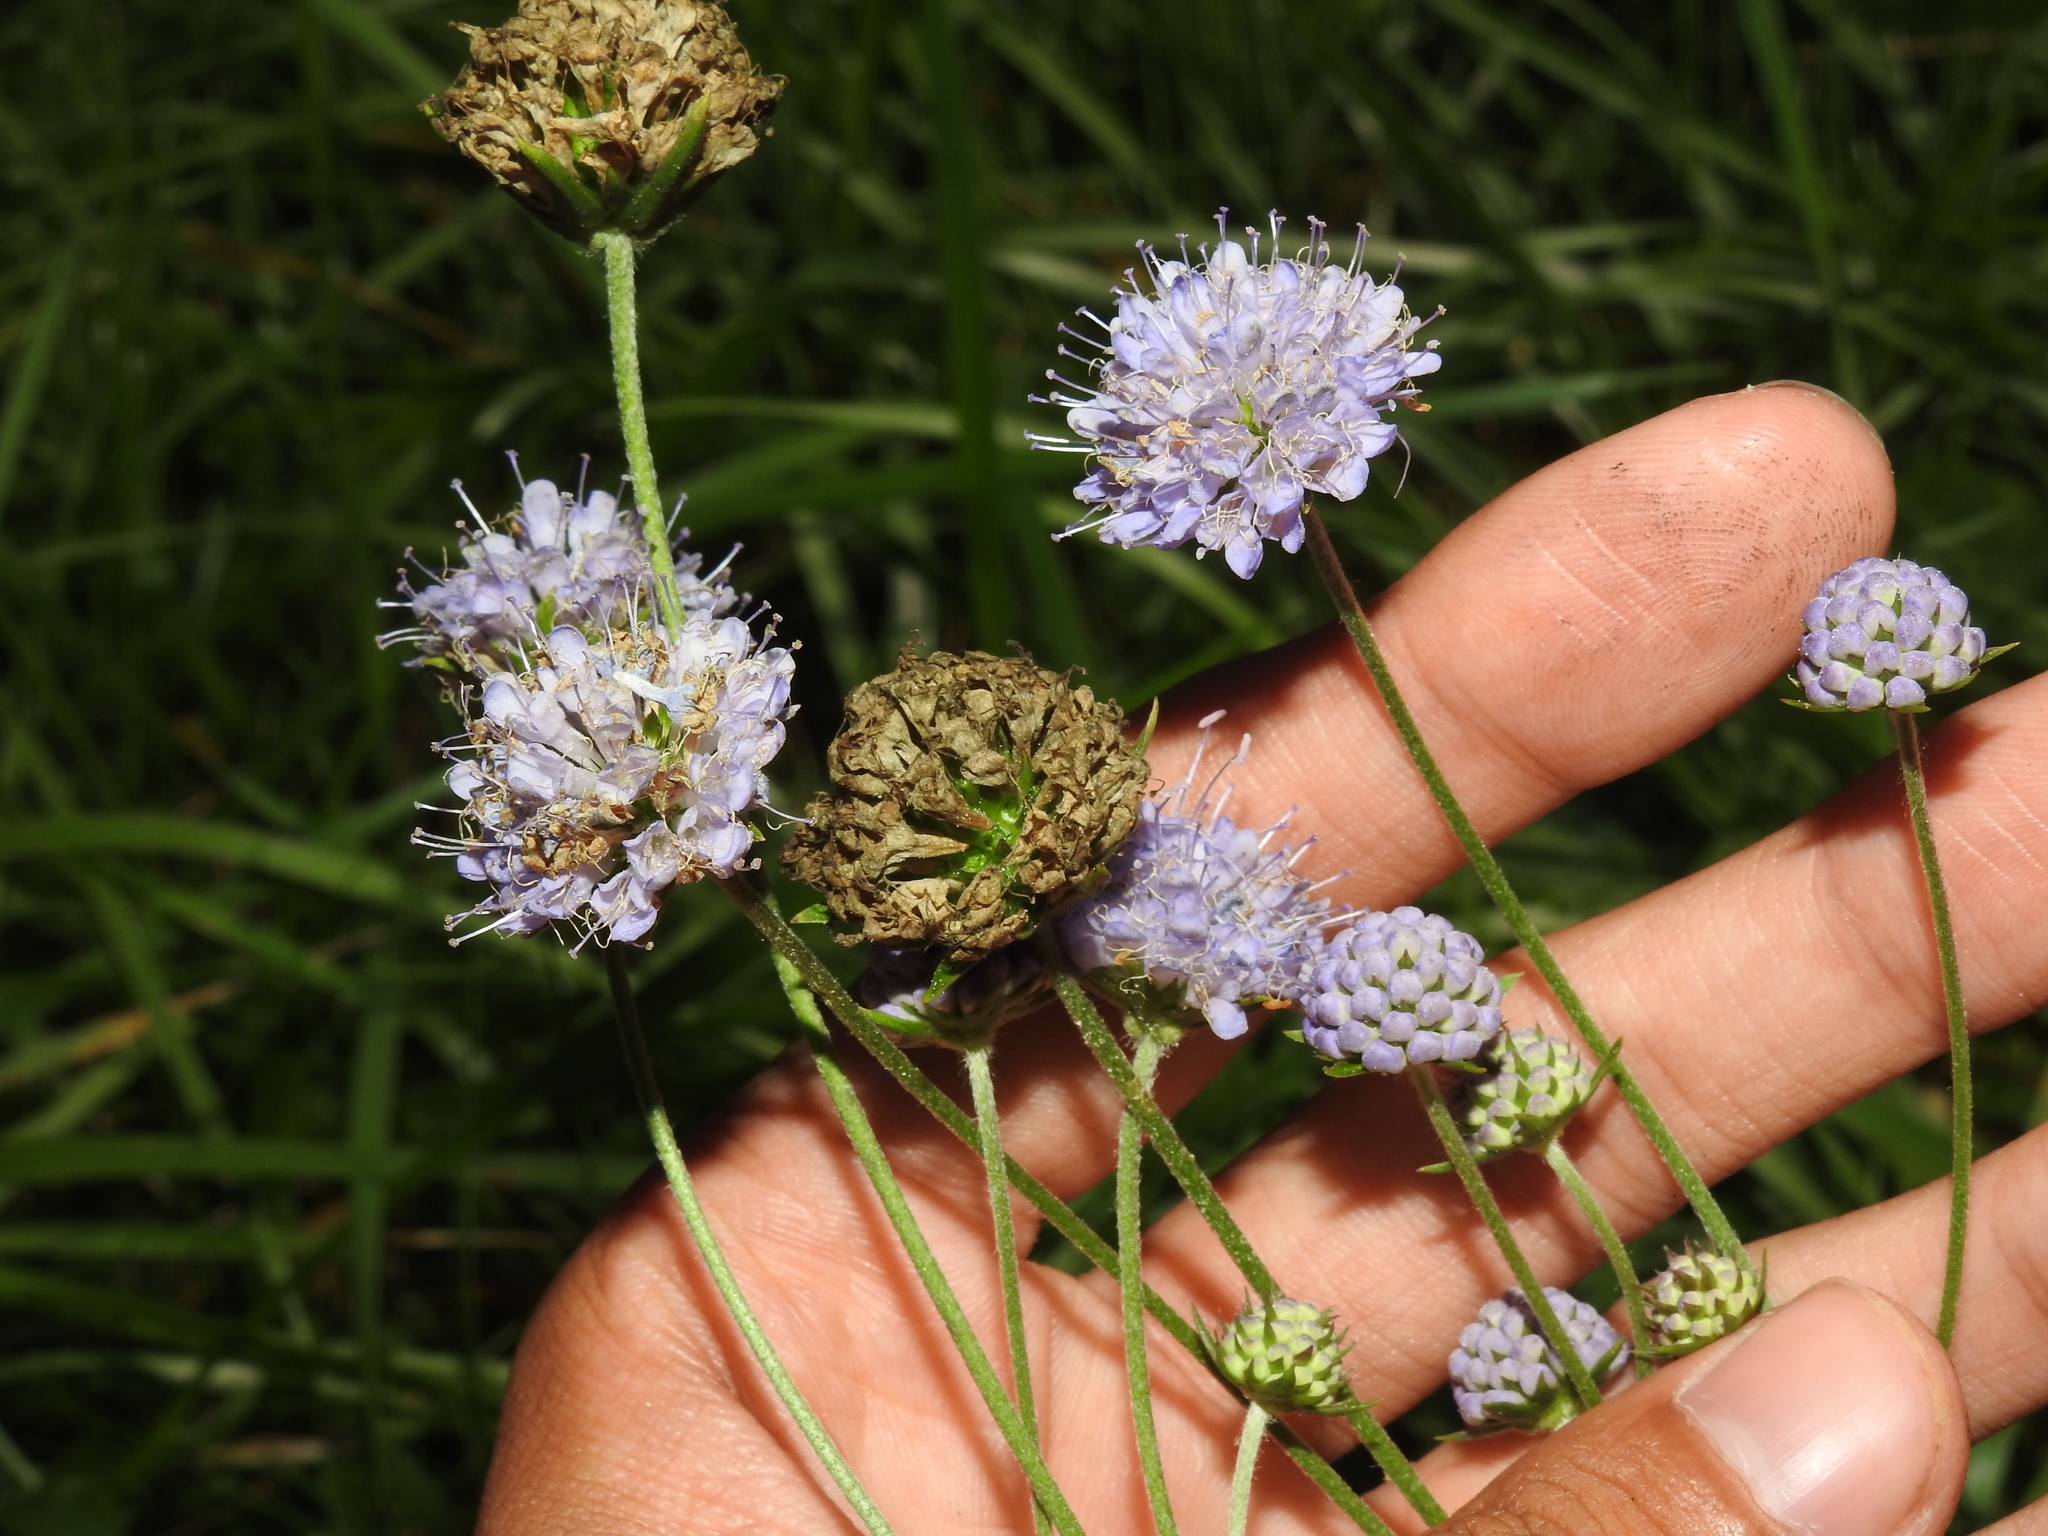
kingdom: Plantae
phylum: Tracheophyta
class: Magnoliopsida
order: Dipsacales
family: Caprifoliaceae
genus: Succisa
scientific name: Succisa pratensis
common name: Devil's-bit
